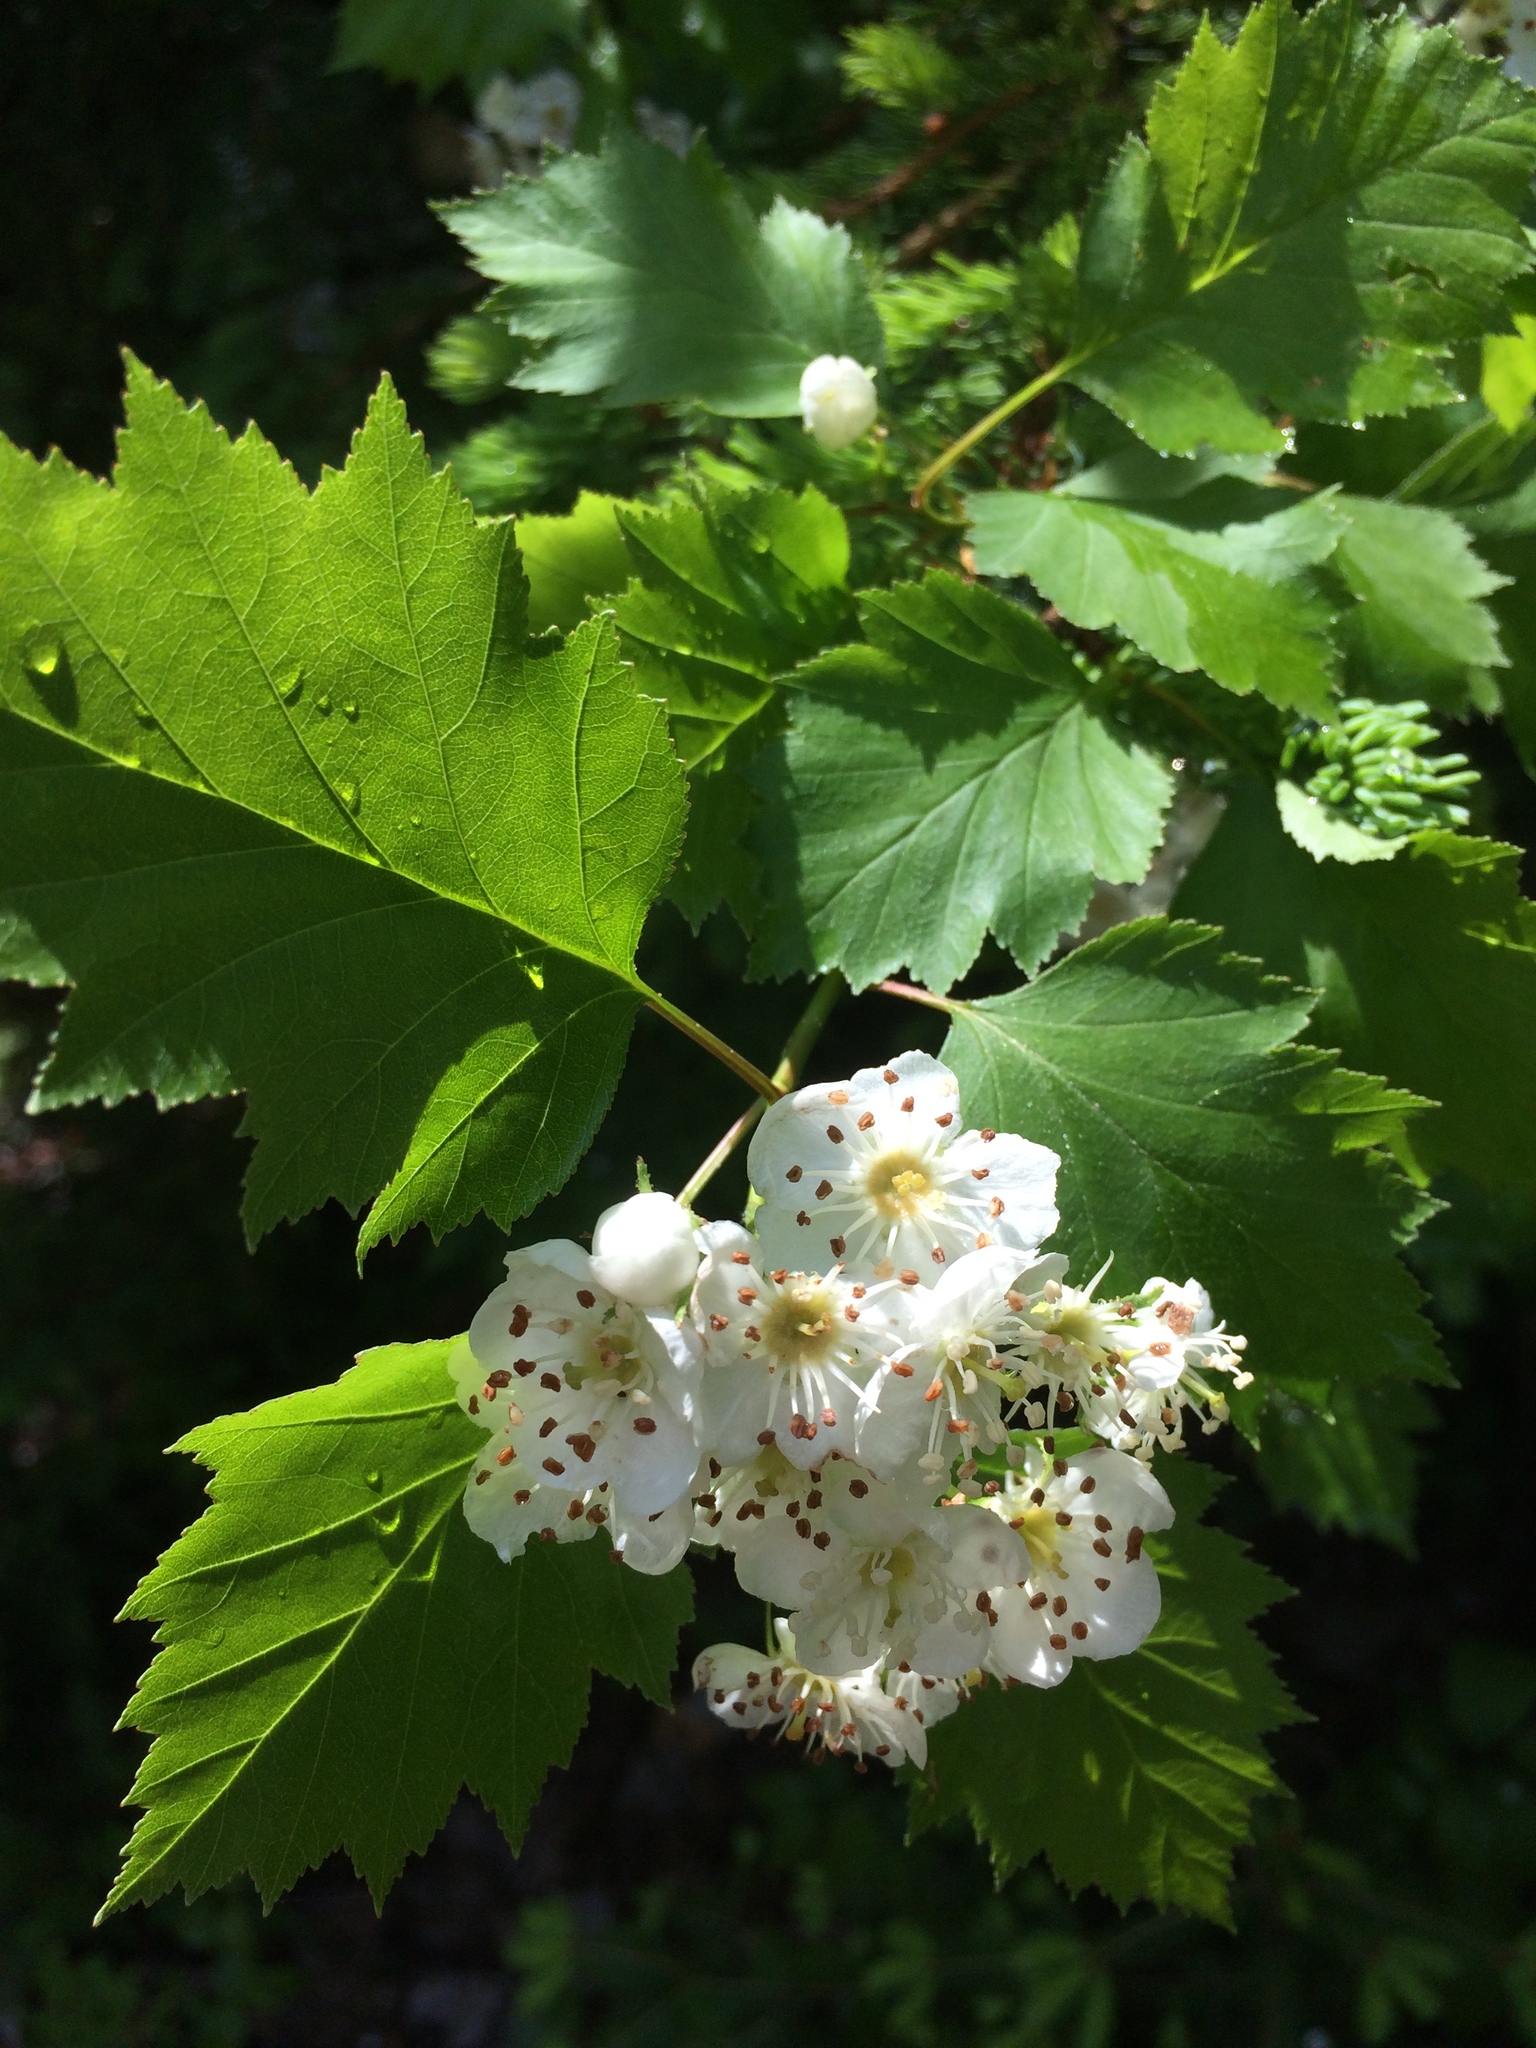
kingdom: Plantae
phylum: Tracheophyta
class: Magnoliopsida
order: Rosales
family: Rosaceae
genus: Crataegus
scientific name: Crataegus irrasa
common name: Unshorn hawthorn
